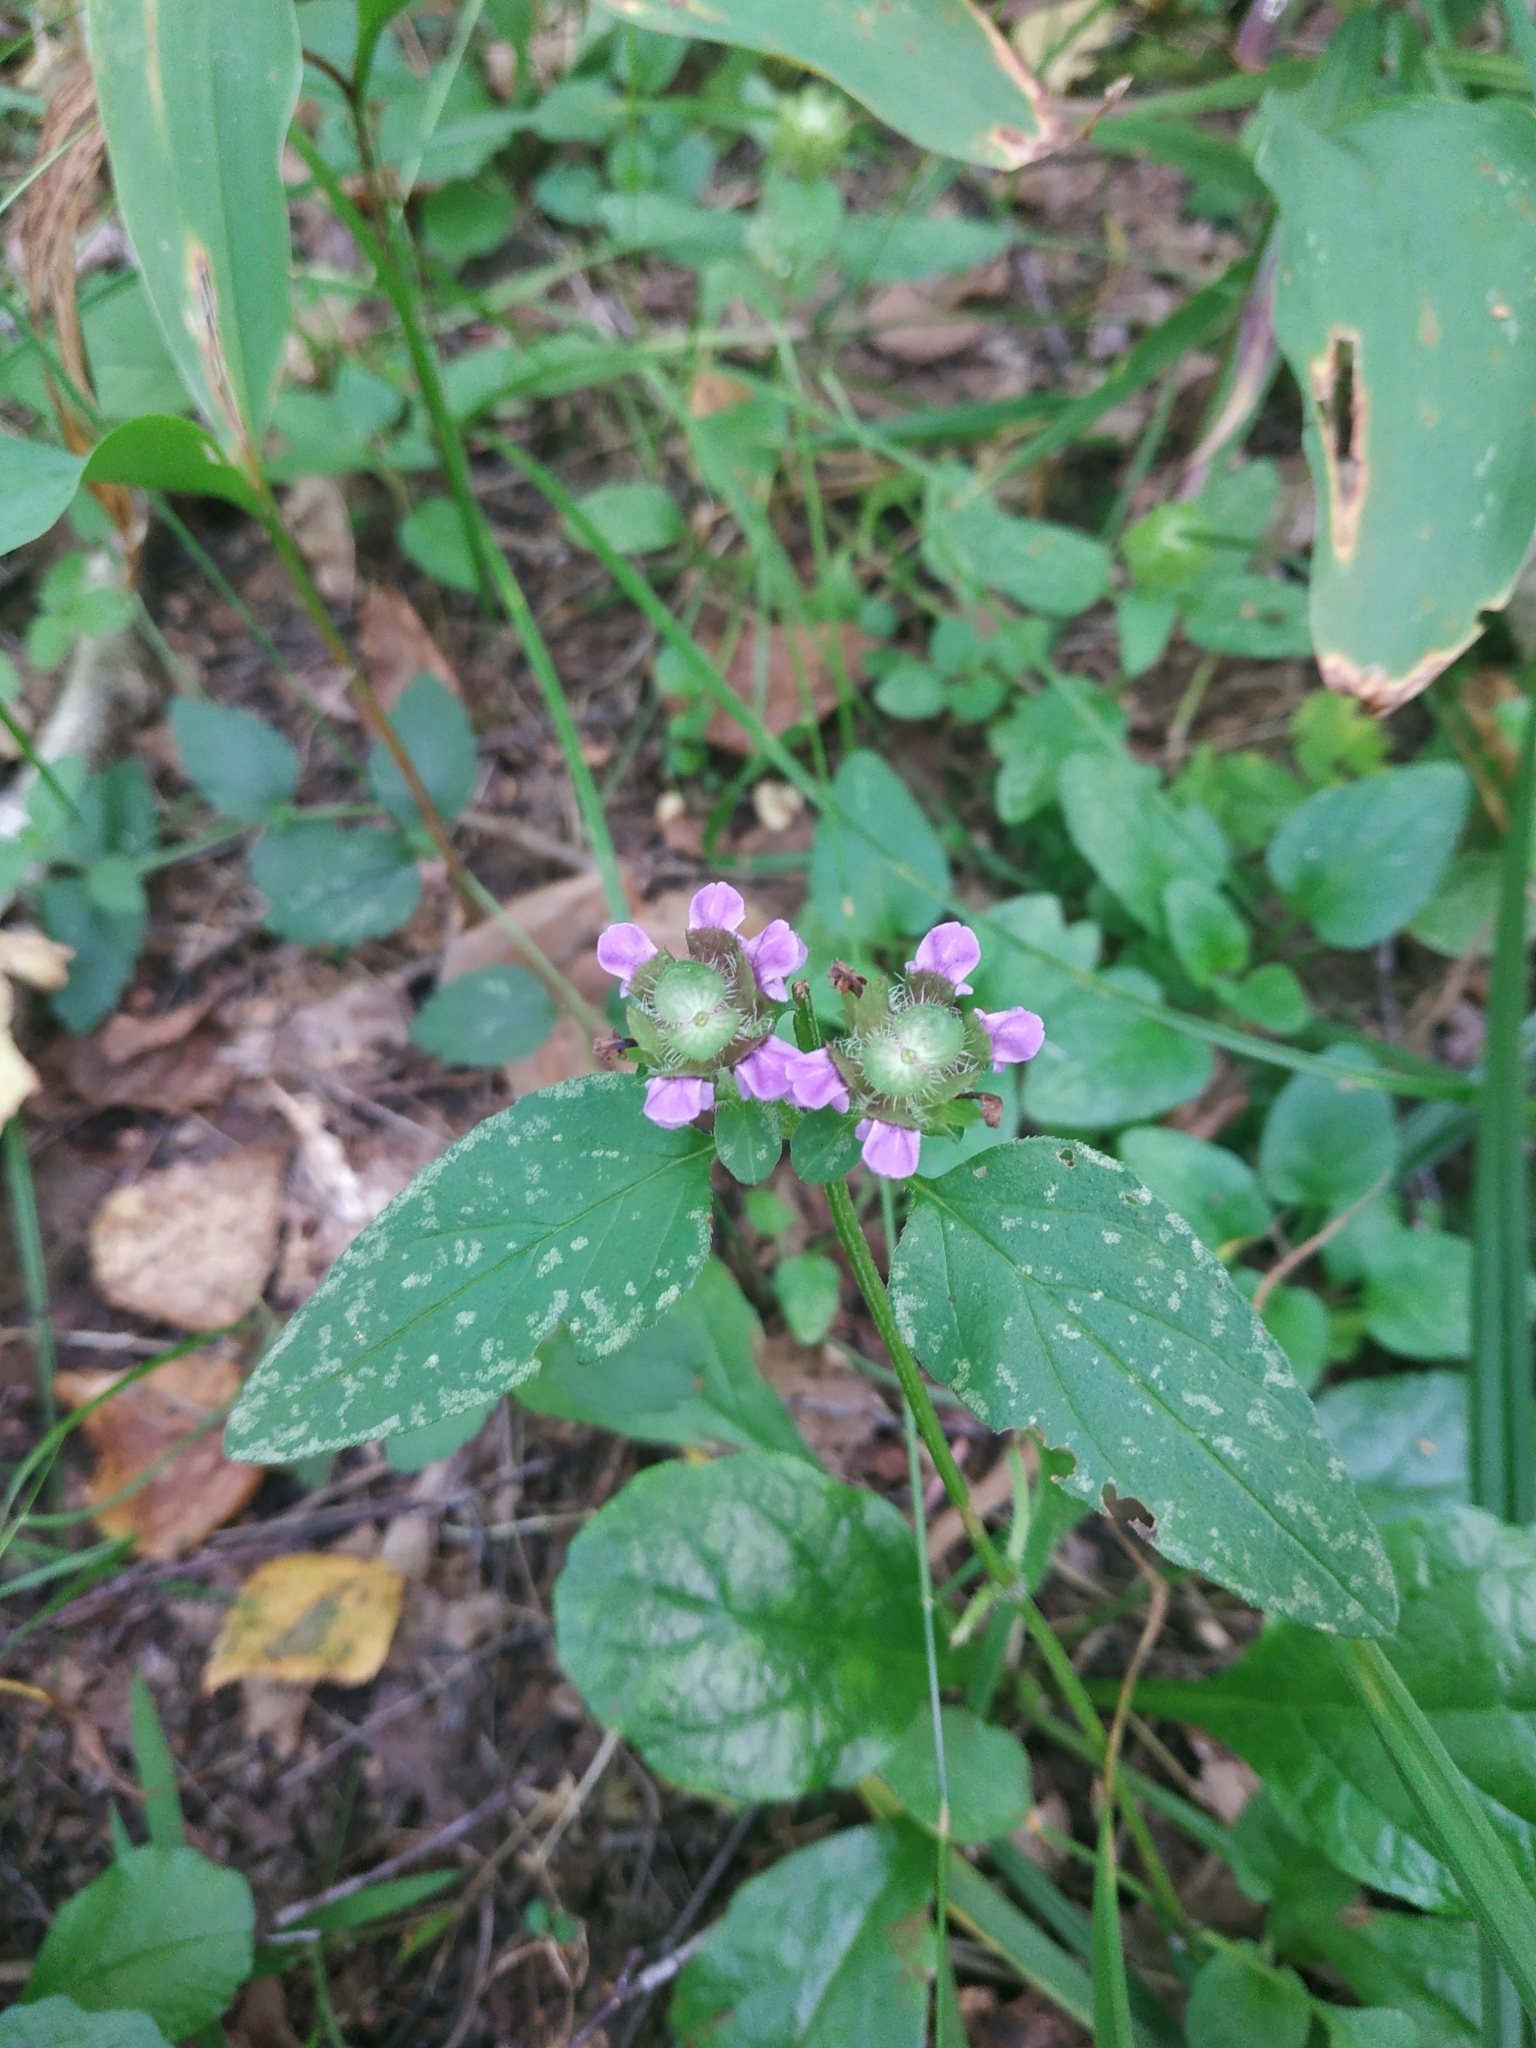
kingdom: Plantae
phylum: Tracheophyta
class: Magnoliopsida
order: Lamiales
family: Lamiaceae
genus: Prunella
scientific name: Prunella vulgaris
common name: Heal-all
